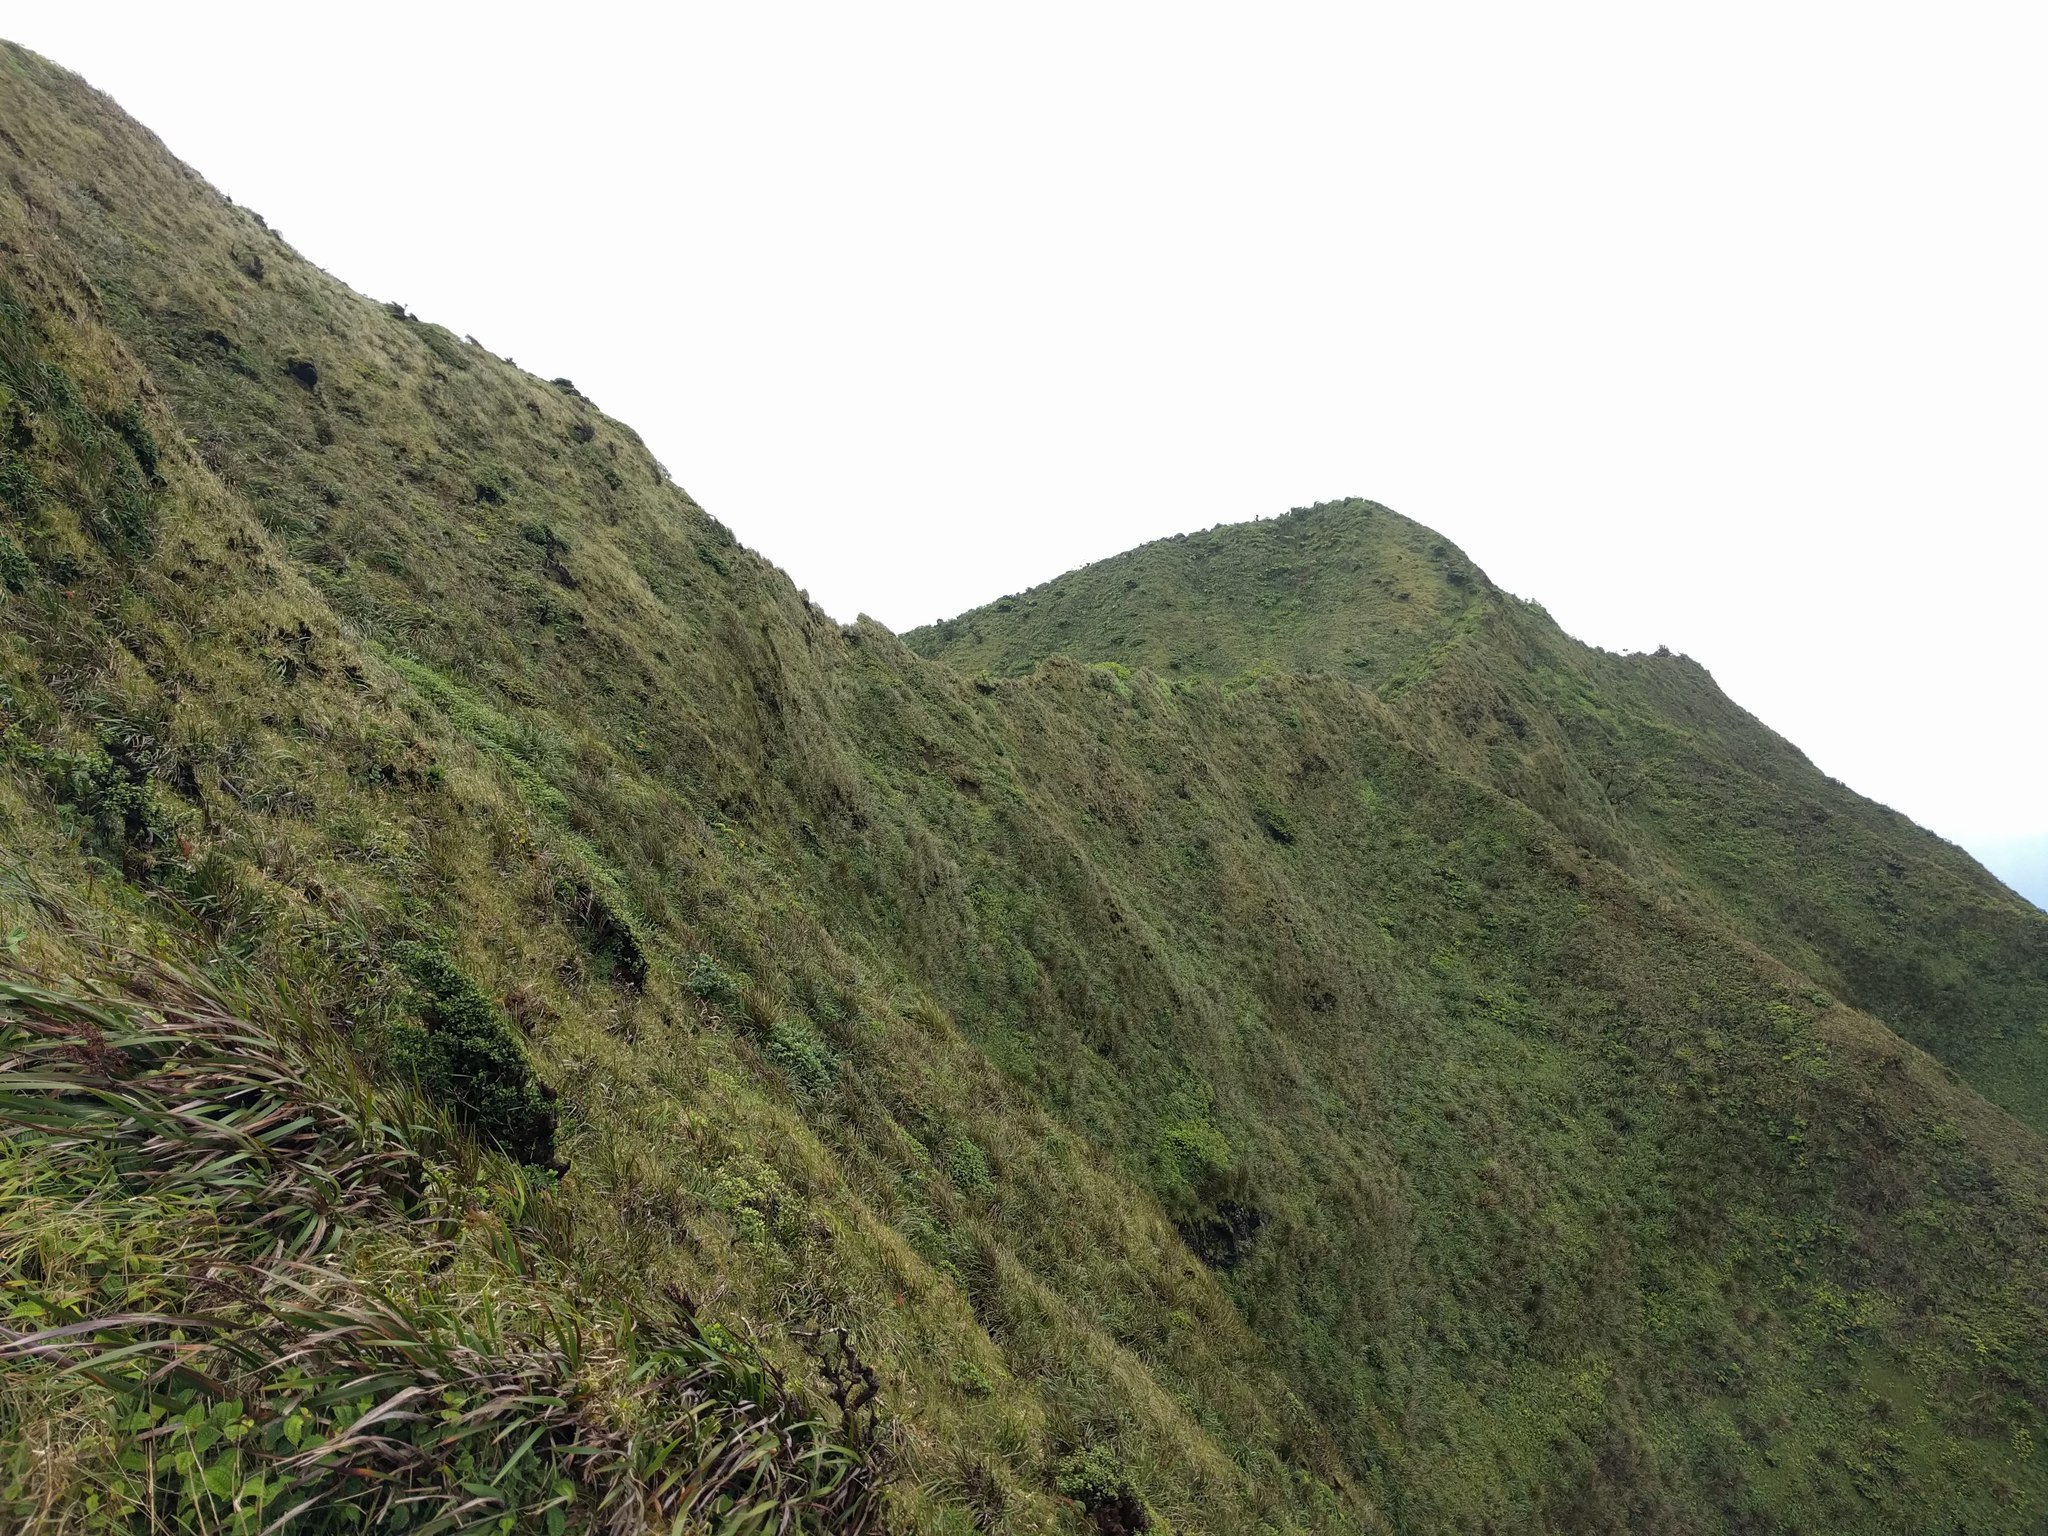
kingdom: Plantae
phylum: Tracheophyta
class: Liliopsida
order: Poales
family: Cyperaceae
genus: Machaerina
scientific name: Machaerina angustifolia
